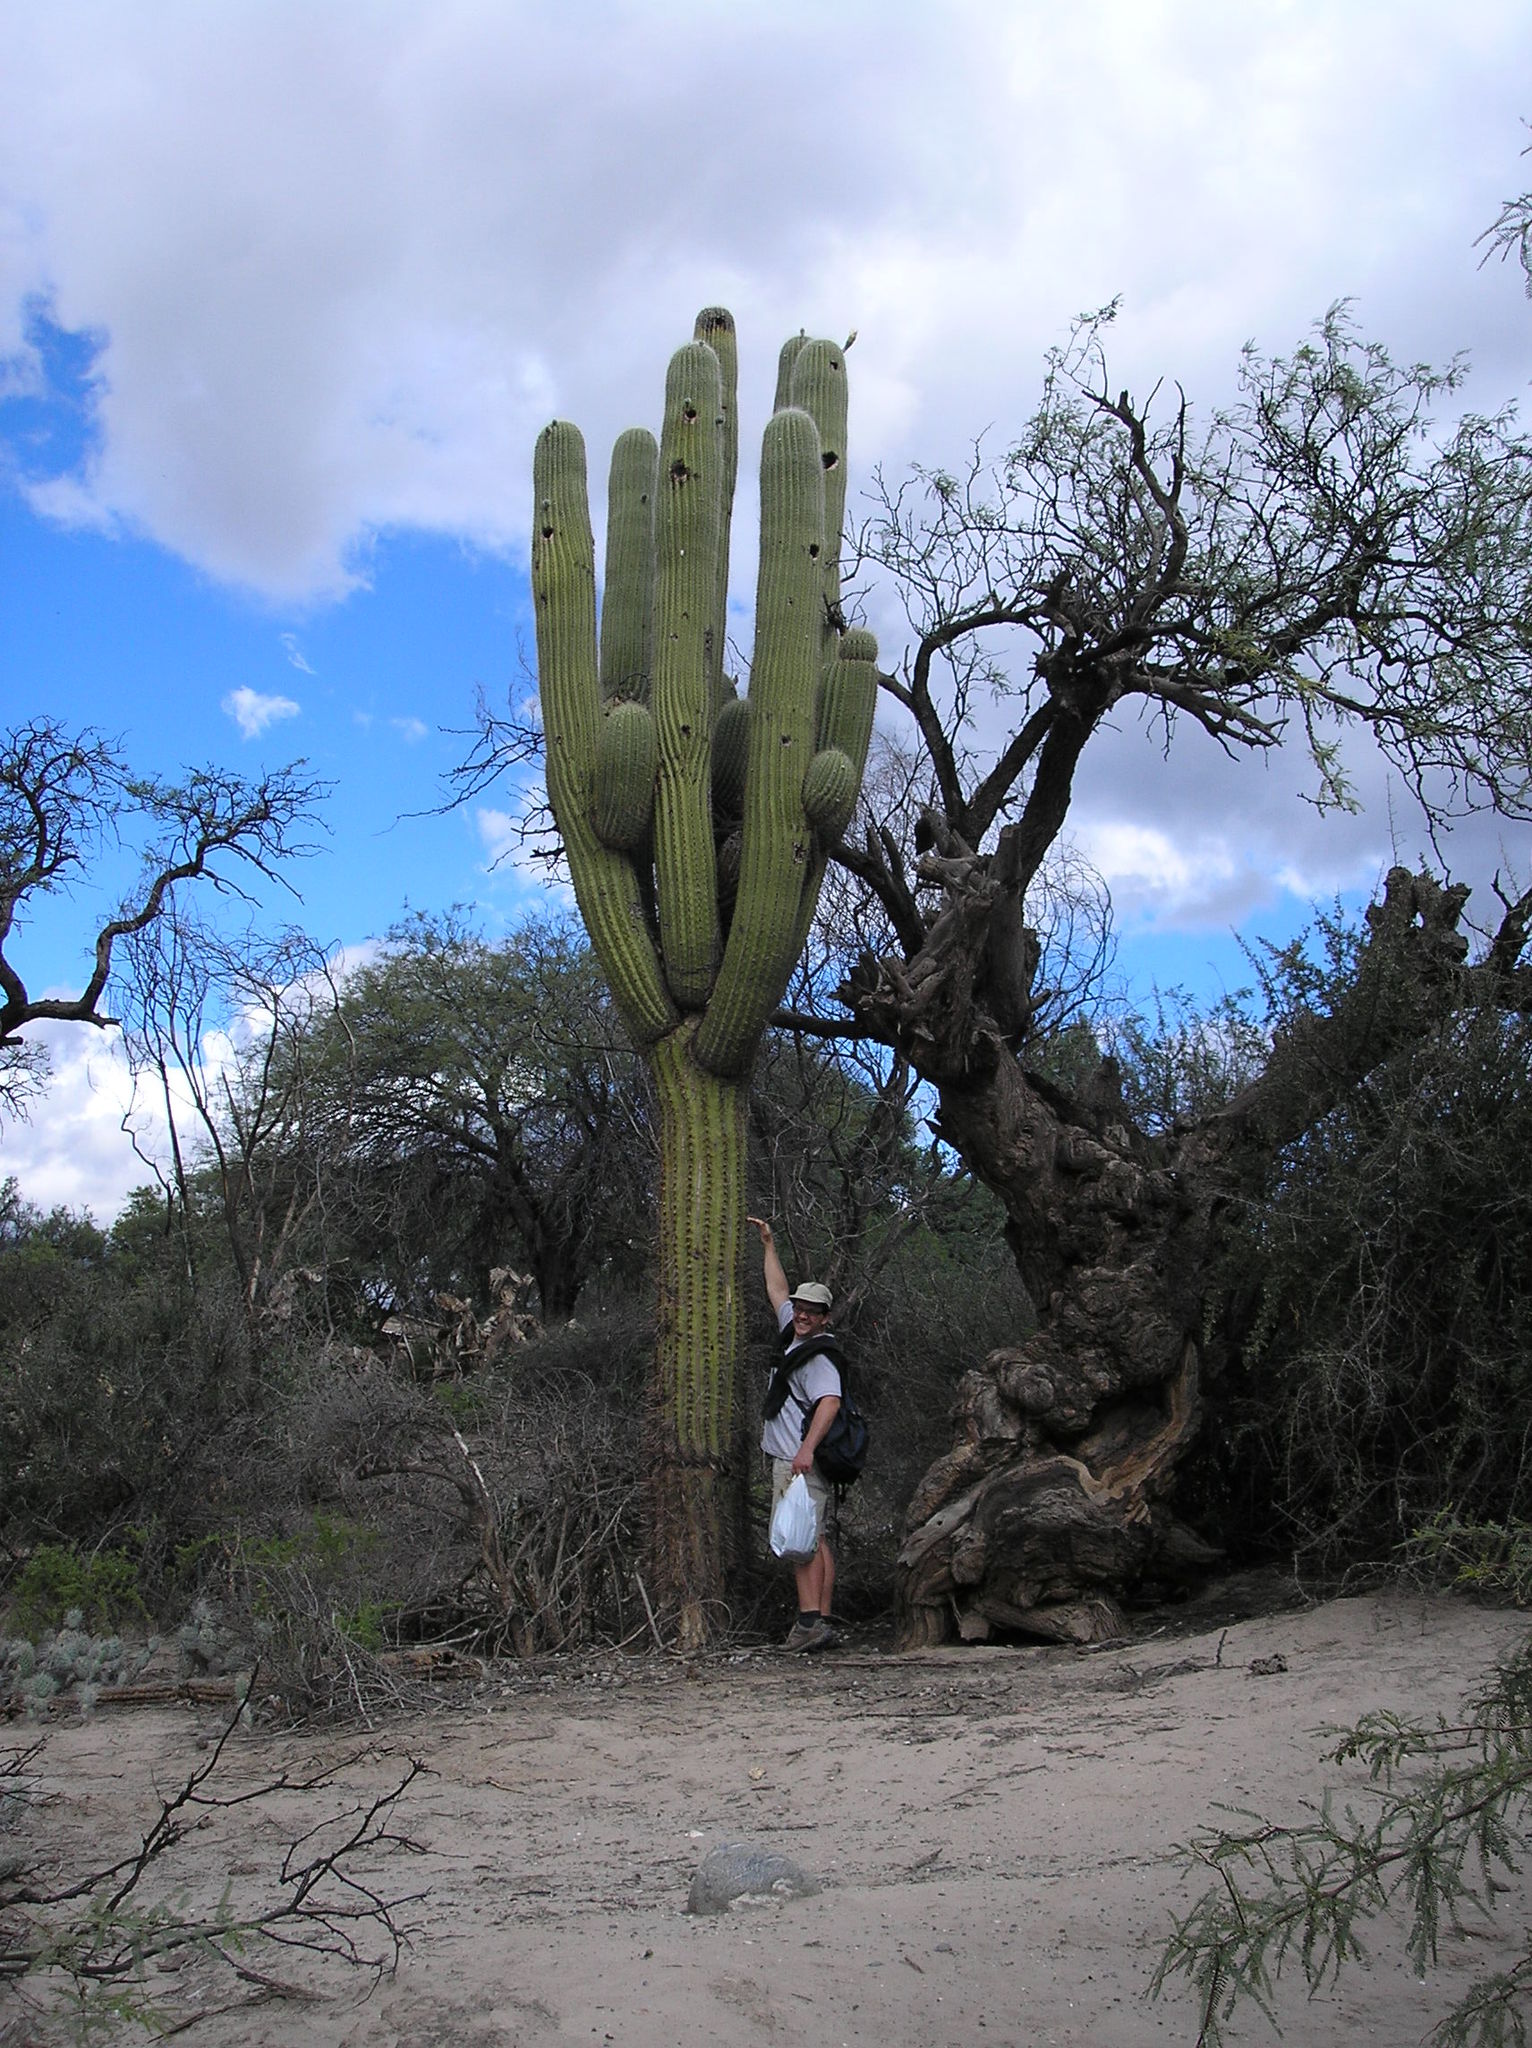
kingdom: Plantae
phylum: Tracheophyta
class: Magnoliopsida
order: Caryophyllales
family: Cactaceae
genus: Leucostele
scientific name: Leucostele atacamensis
